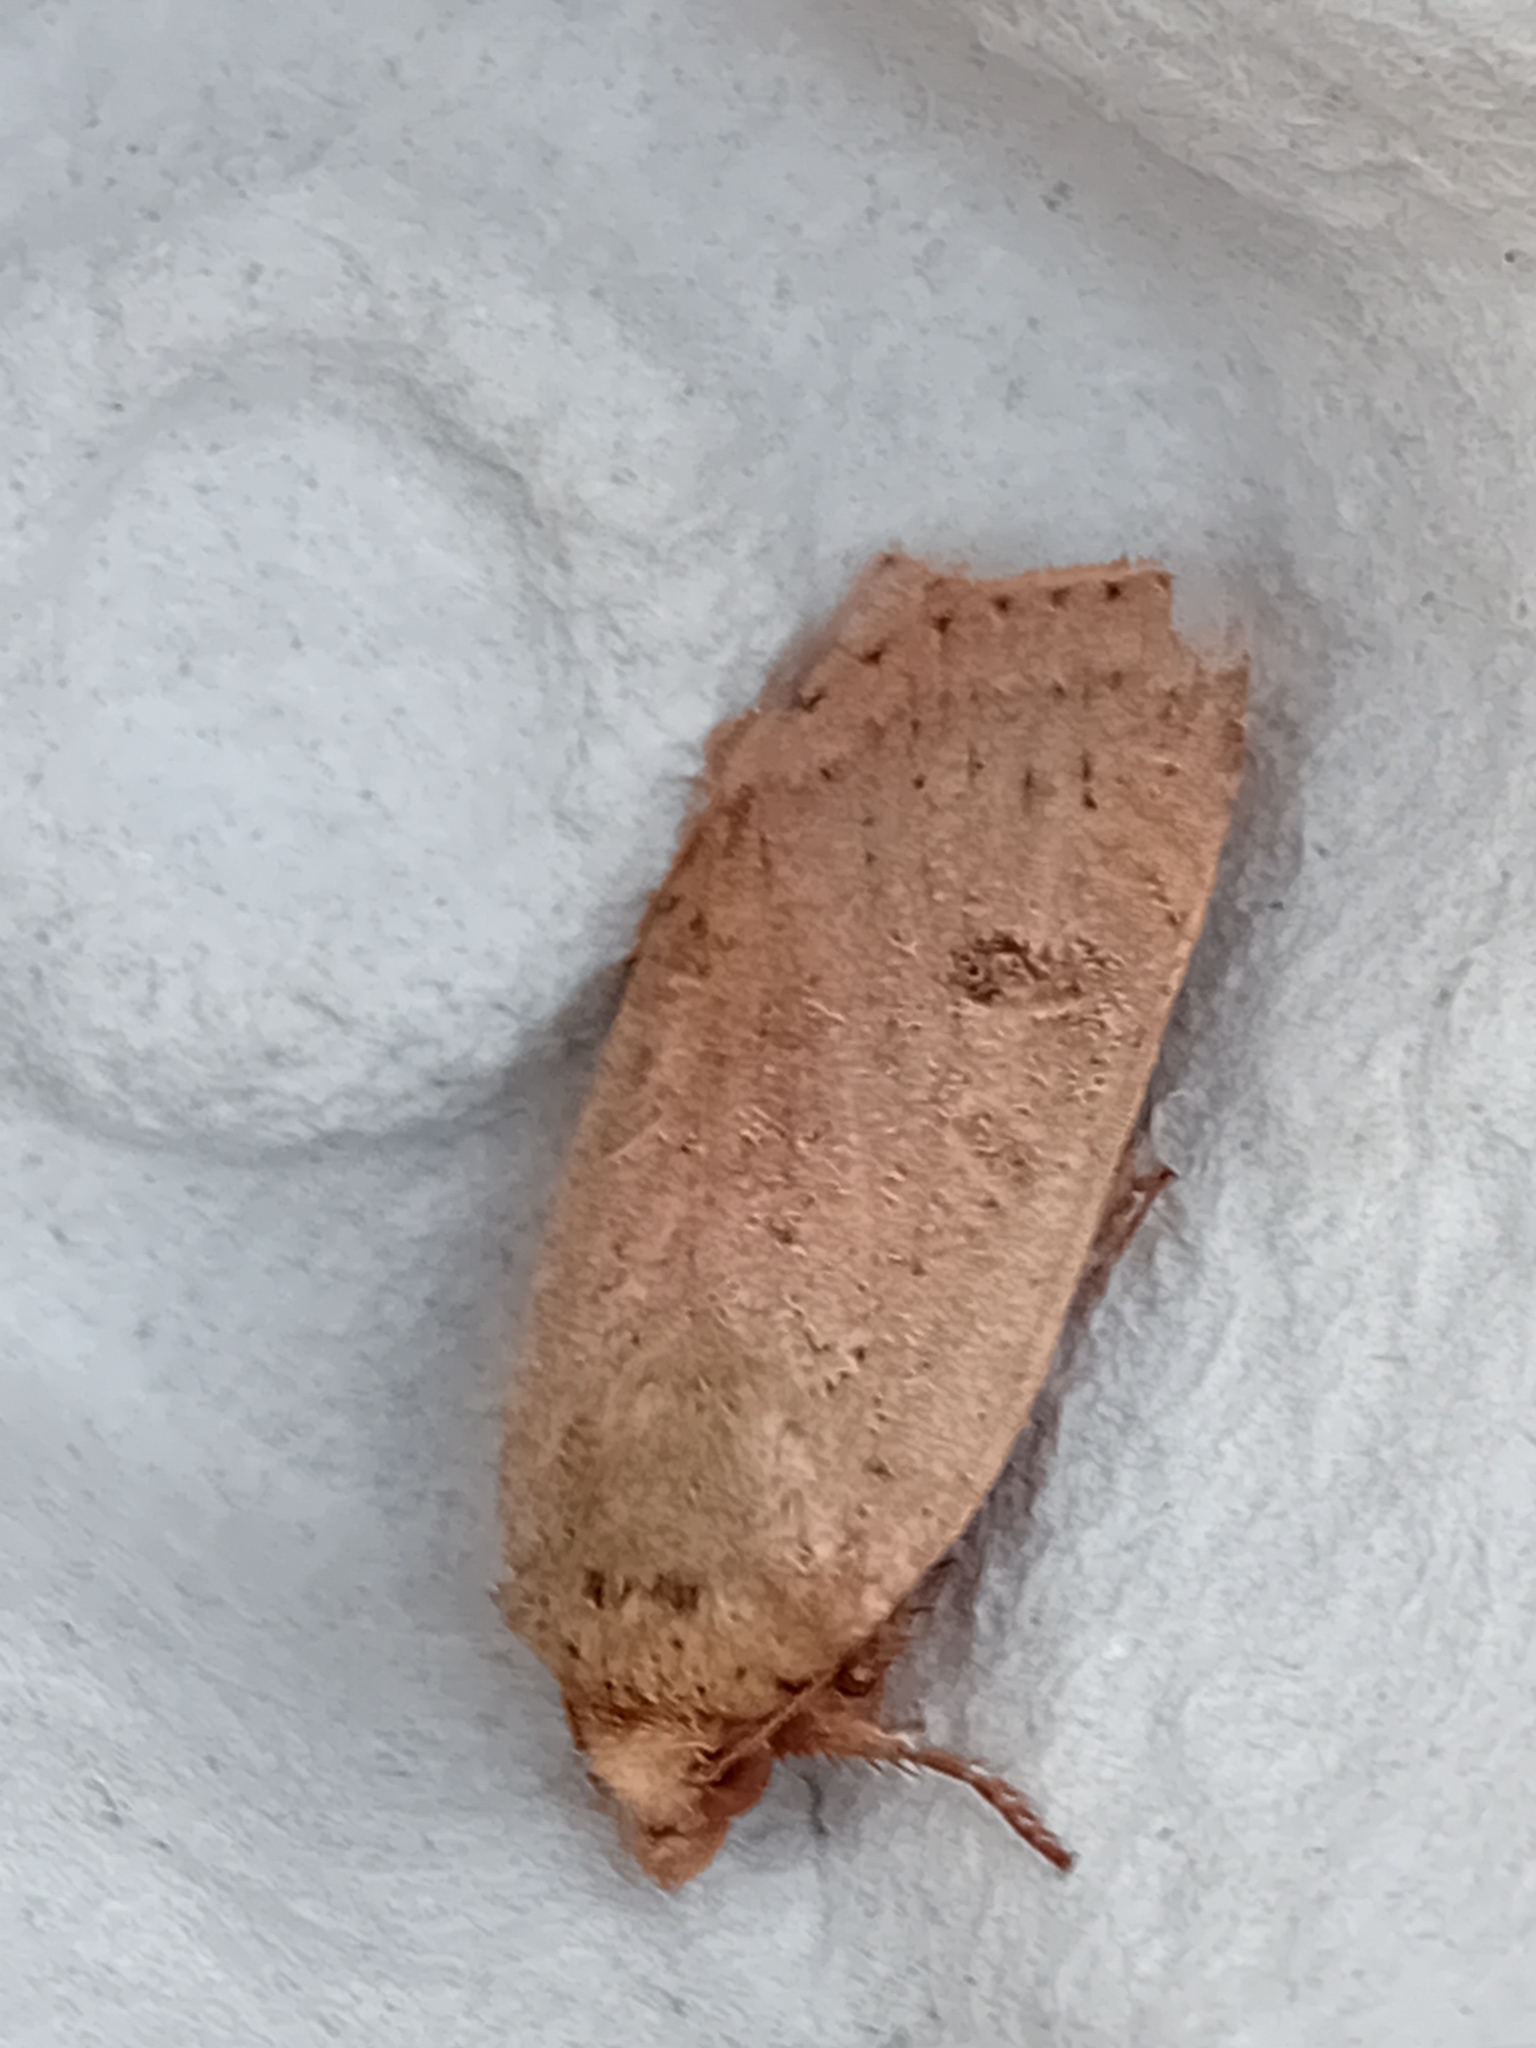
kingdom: Animalia
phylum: Arthropoda
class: Insecta
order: Lepidoptera
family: Noctuidae
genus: Noctua
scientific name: Noctua comes
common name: Lesser yellow underwing
